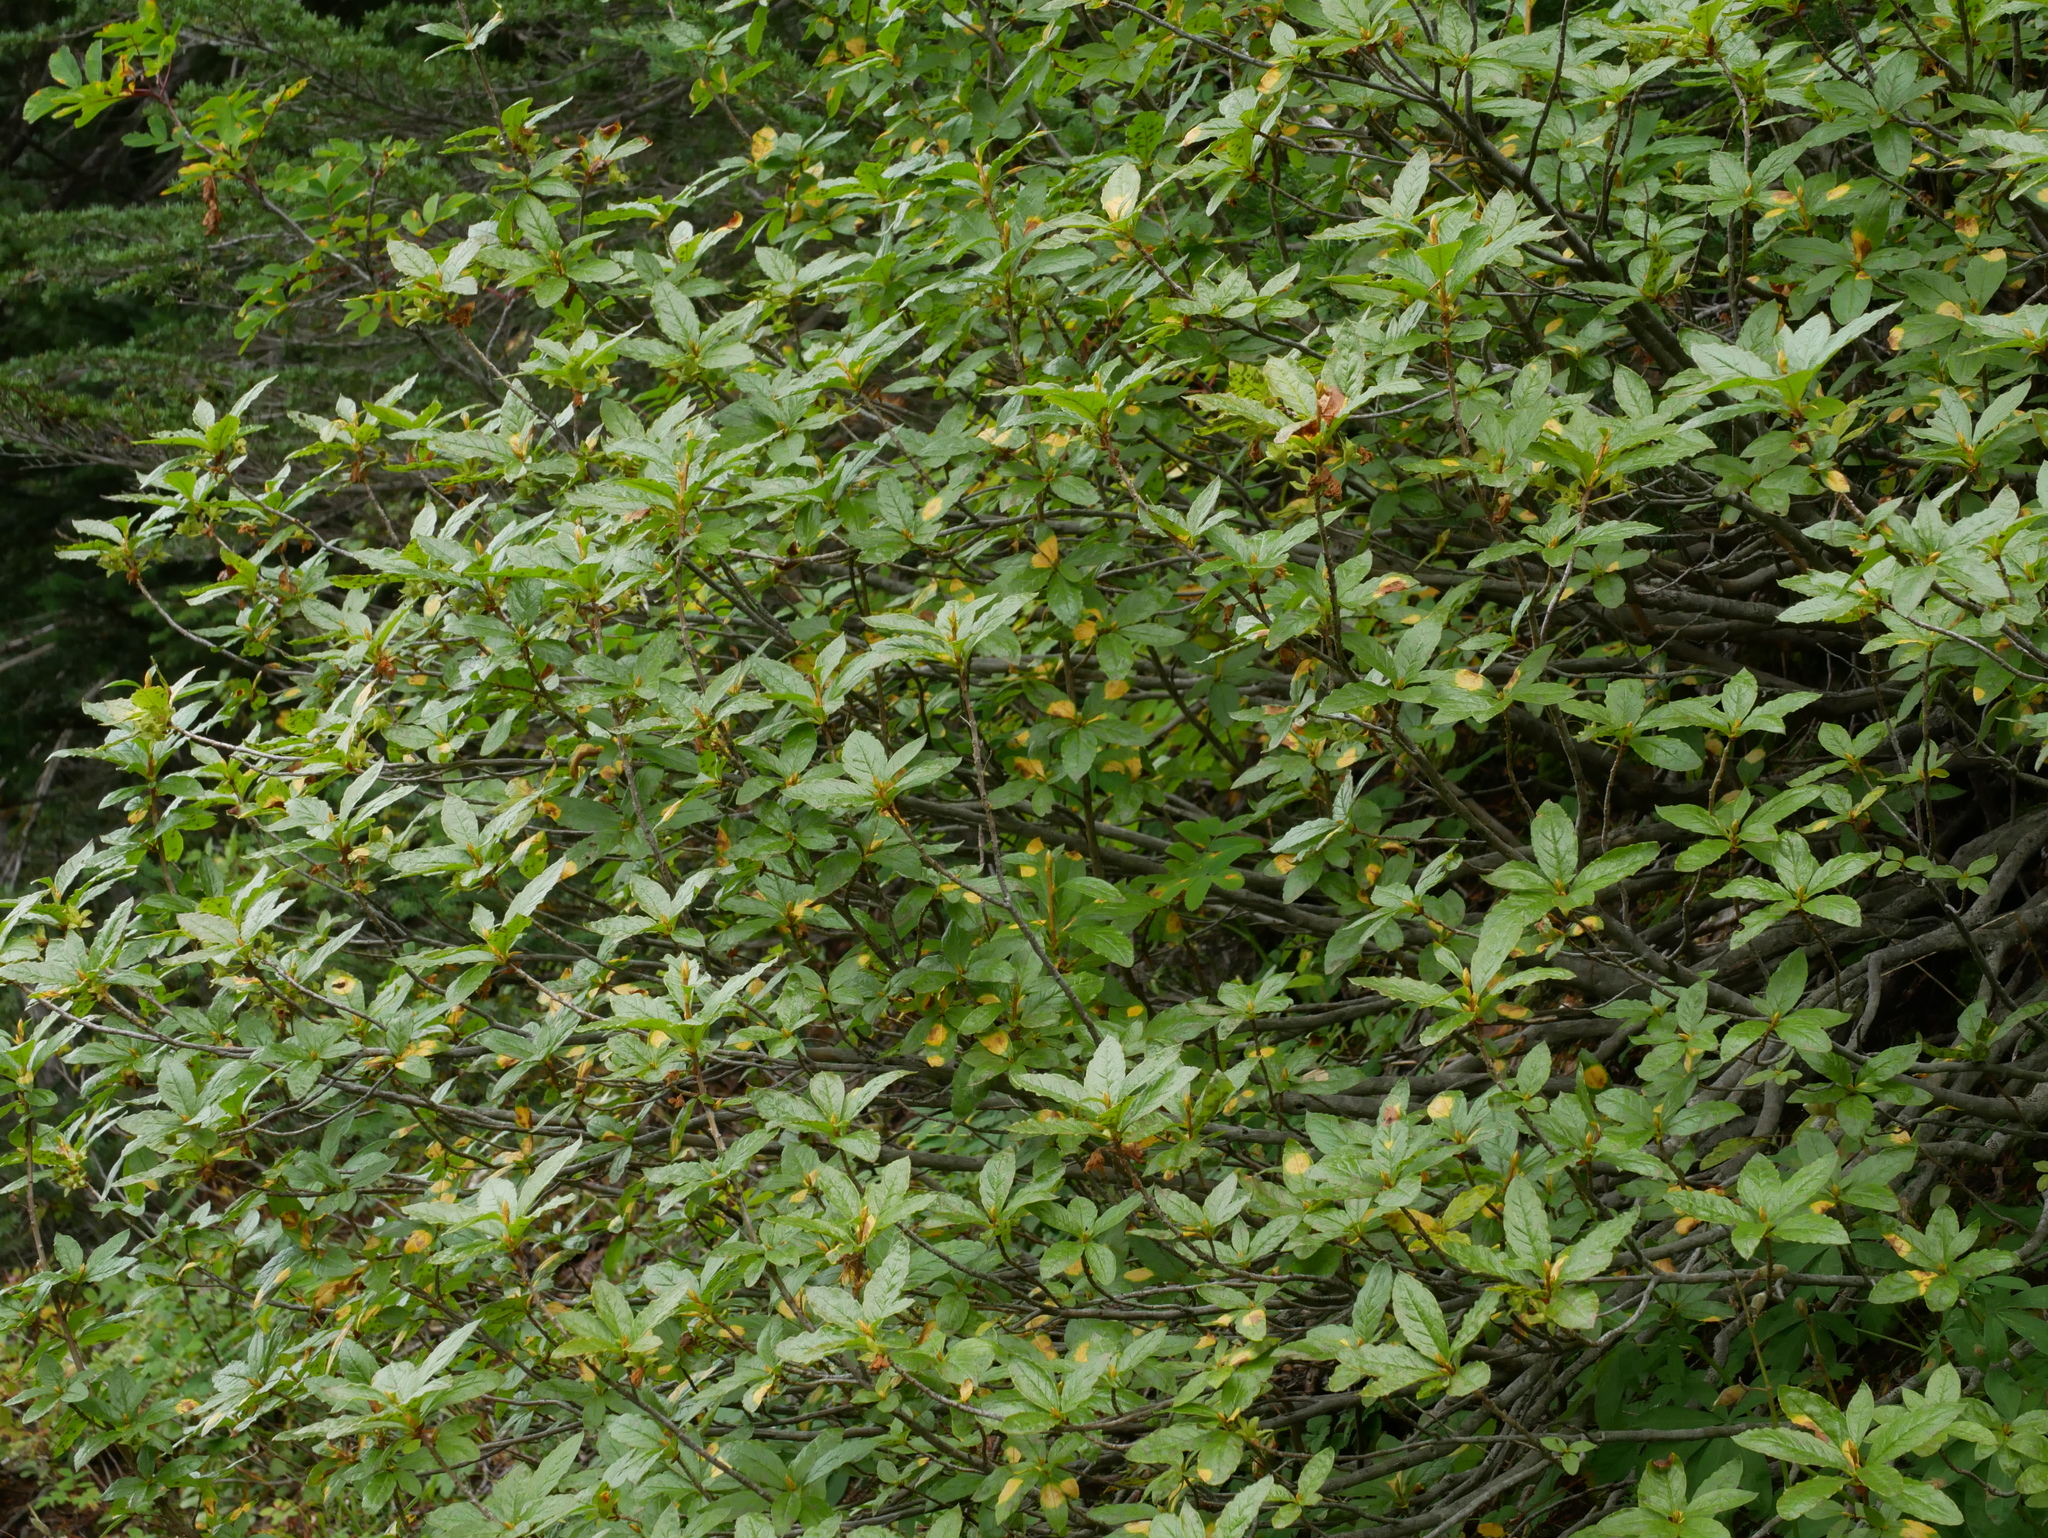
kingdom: Plantae
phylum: Tracheophyta
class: Magnoliopsida
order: Ericales
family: Ericaceae
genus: Rhododendron
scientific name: Rhododendron albiflorum
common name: White rhododendron
